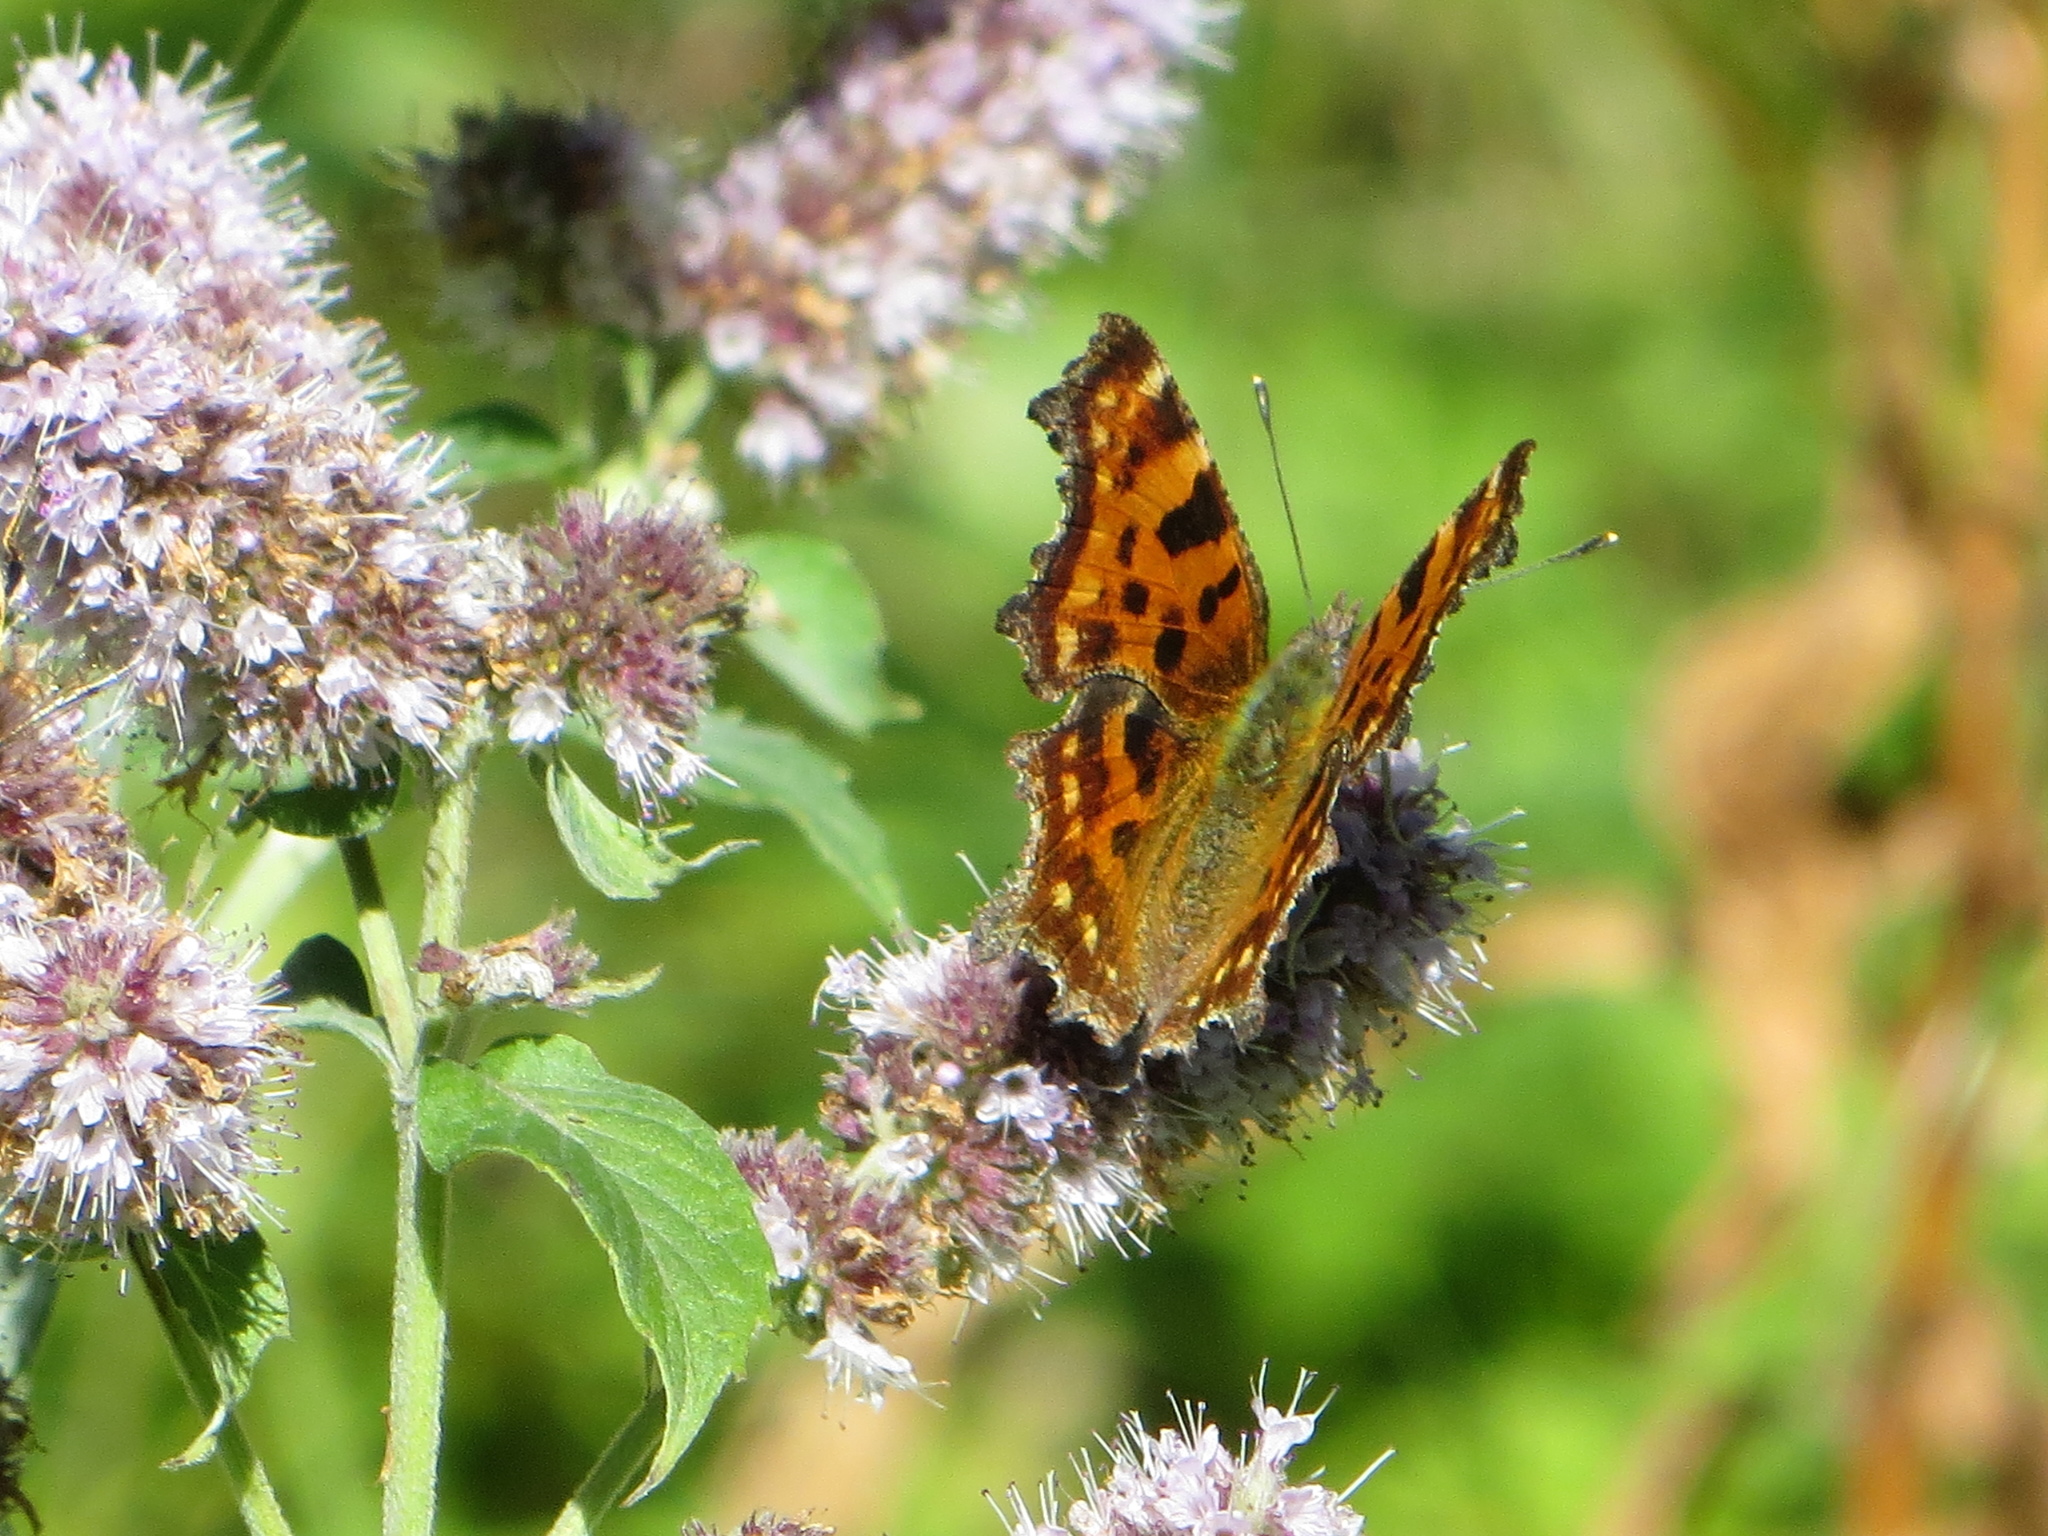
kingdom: Animalia
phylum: Arthropoda
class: Insecta
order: Lepidoptera
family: Nymphalidae
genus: Polygonia
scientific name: Polygonia c-album
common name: Comma
